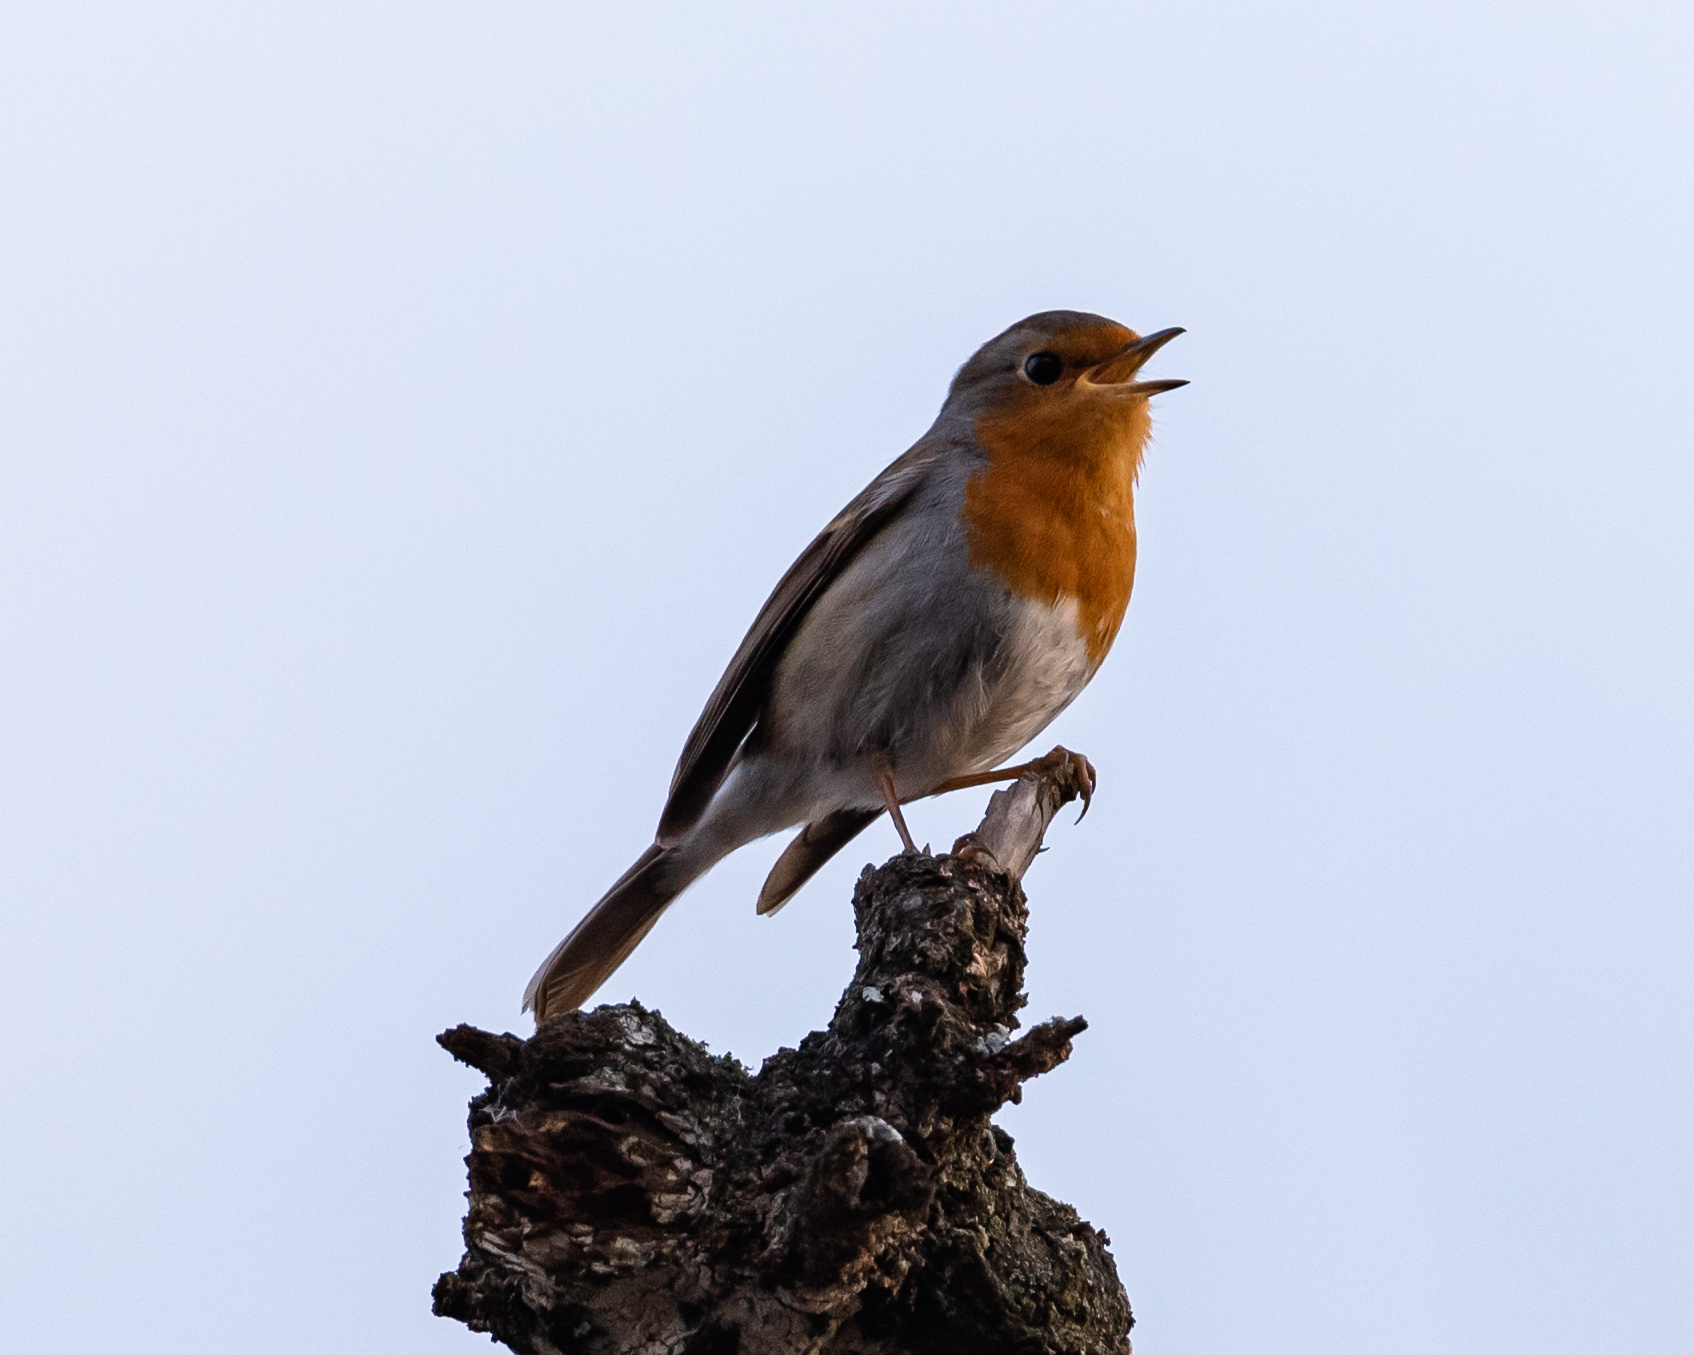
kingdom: Animalia
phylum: Chordata
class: Aves
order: Passeriformes
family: Muscicapidae
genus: Erithacus
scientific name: Erithacus rubecula
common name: European robin
